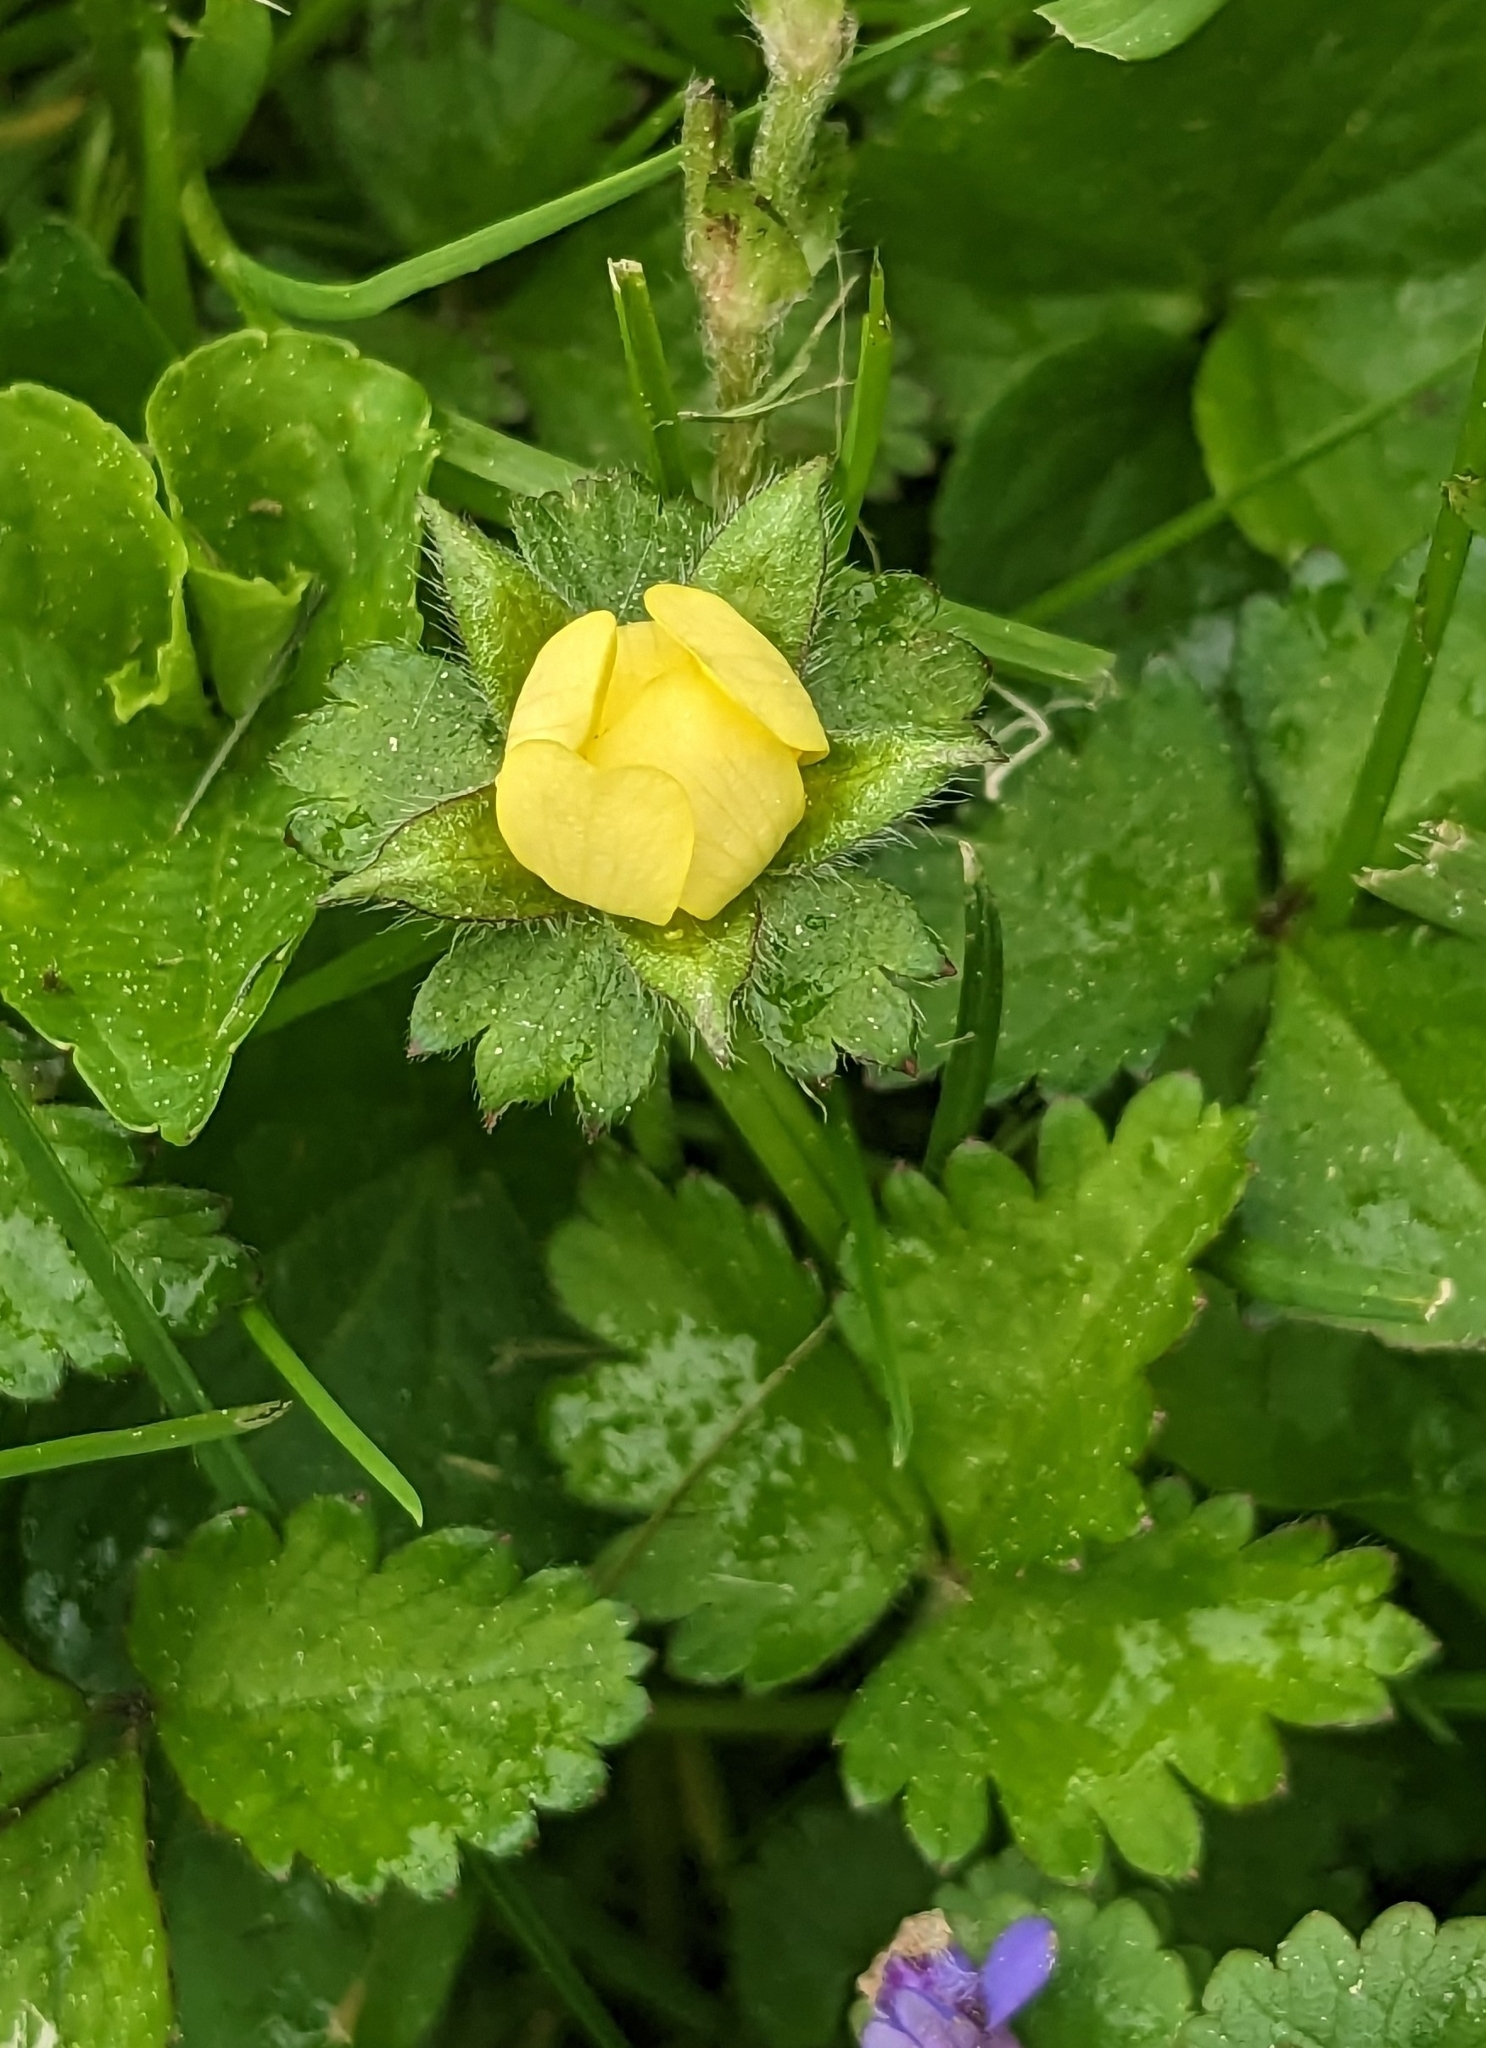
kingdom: Plantae
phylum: Tracheophyta
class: Magnoliopsida
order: Rosales
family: Rosaceae
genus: Potentilla
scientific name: Potentilla indica
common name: Yellow-flowered strawberry
